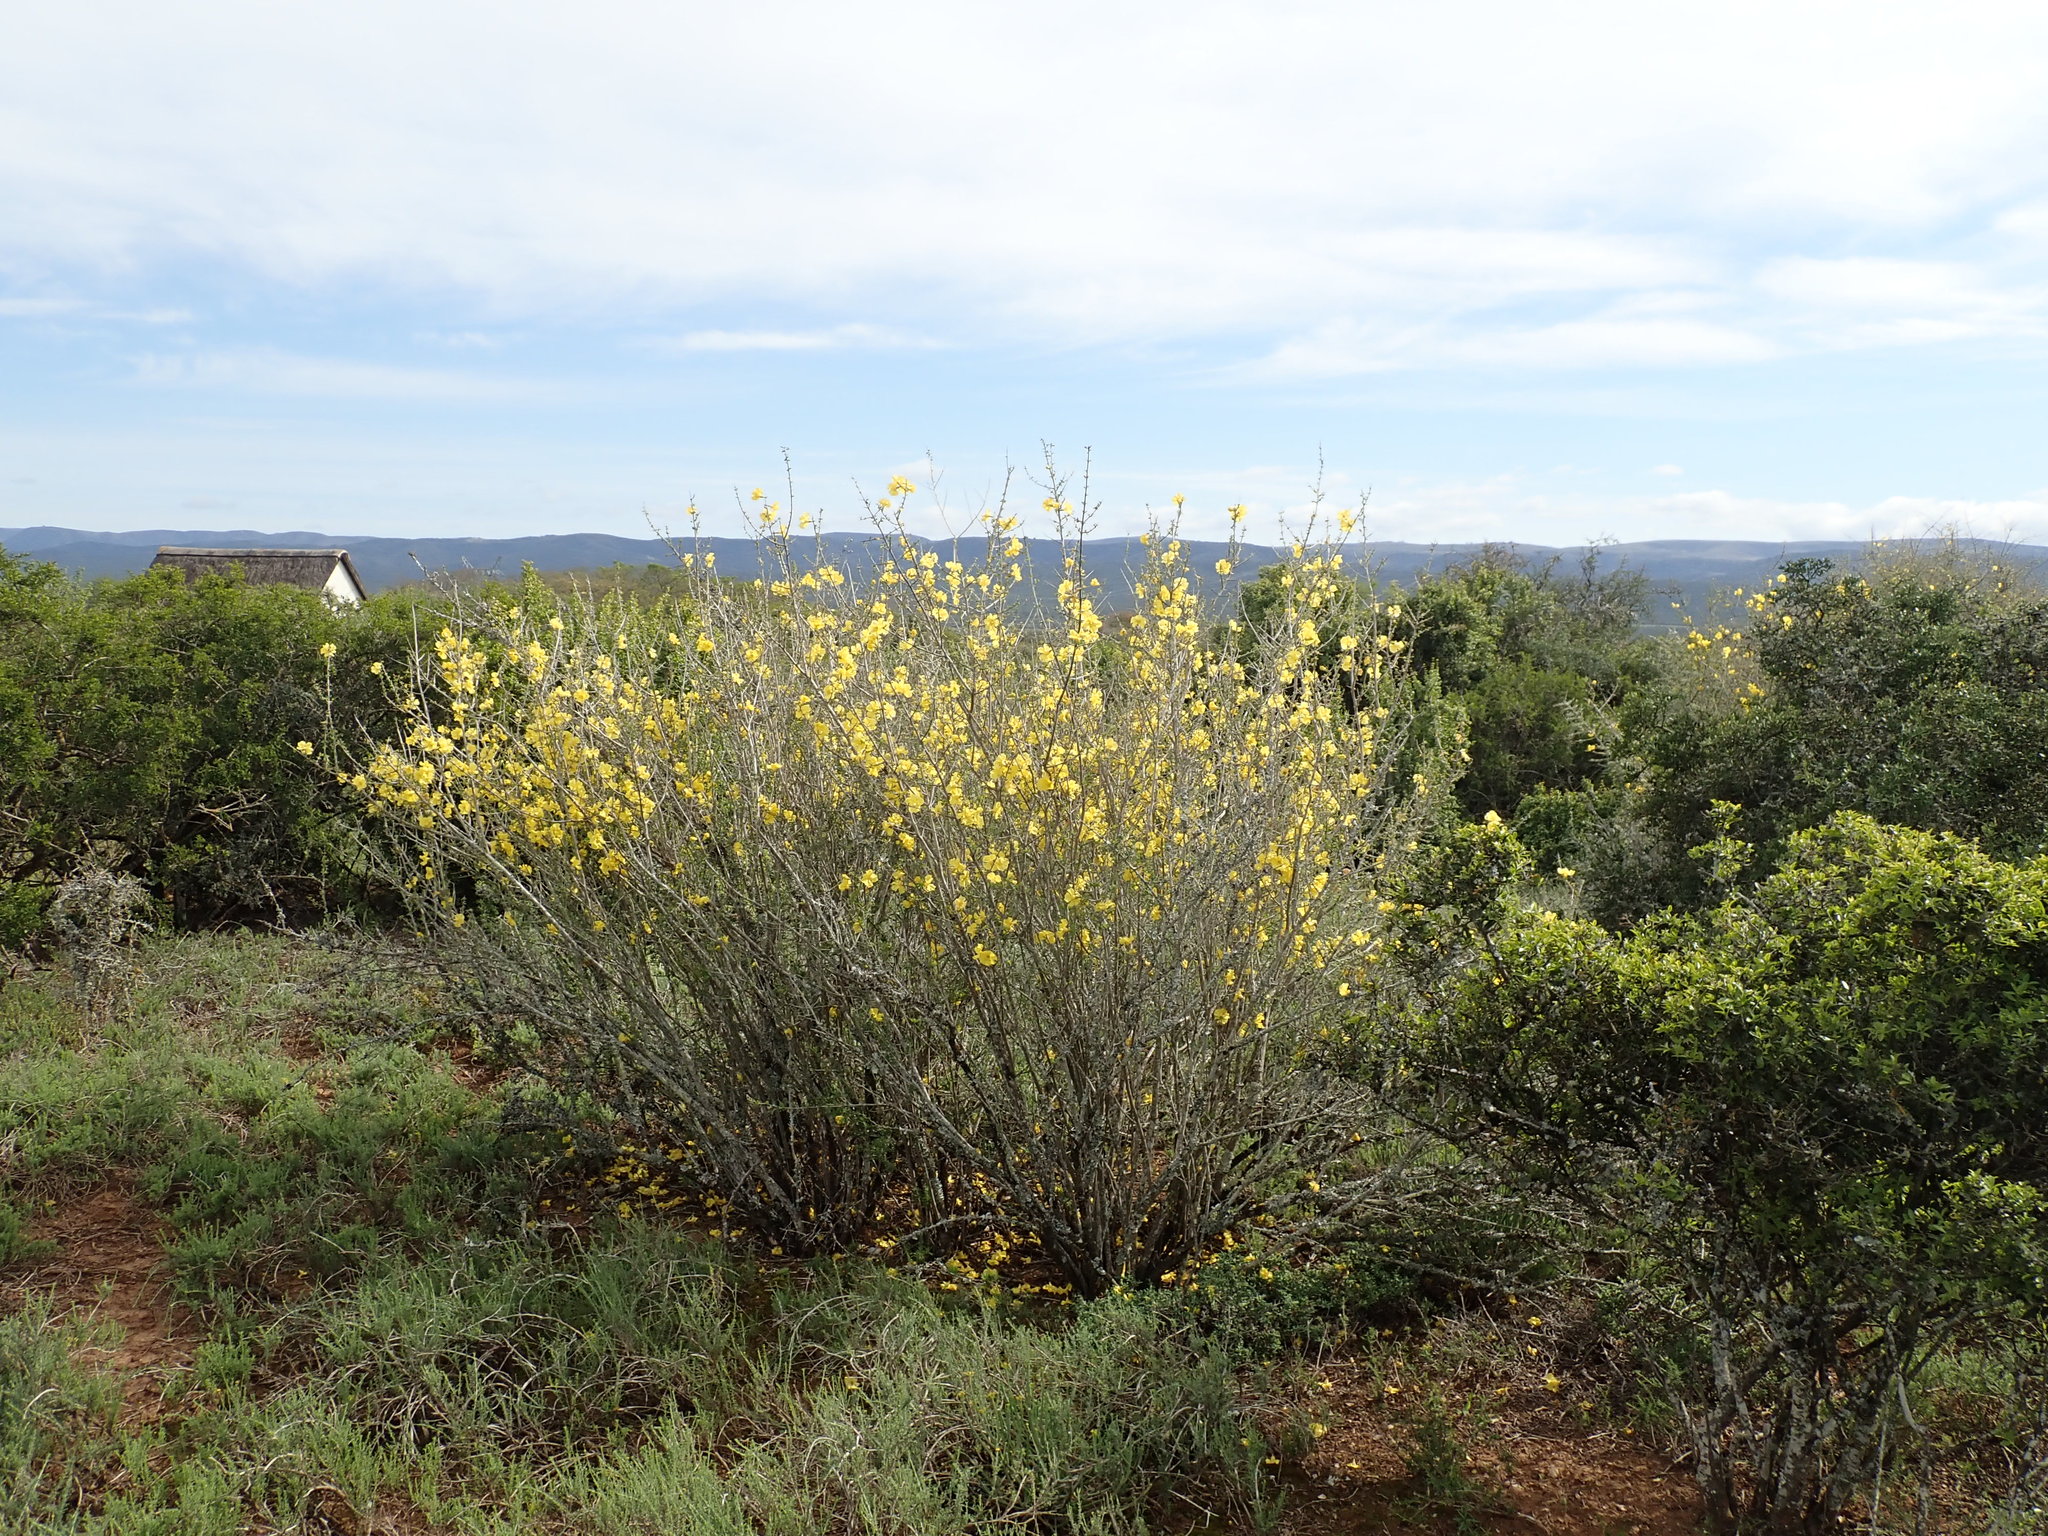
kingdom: Plantae
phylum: Tracheophyta
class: Magnoliopsida
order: Lamiales
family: Bignoniaceae
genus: Rhigozum
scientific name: Rhigozum obovatum
